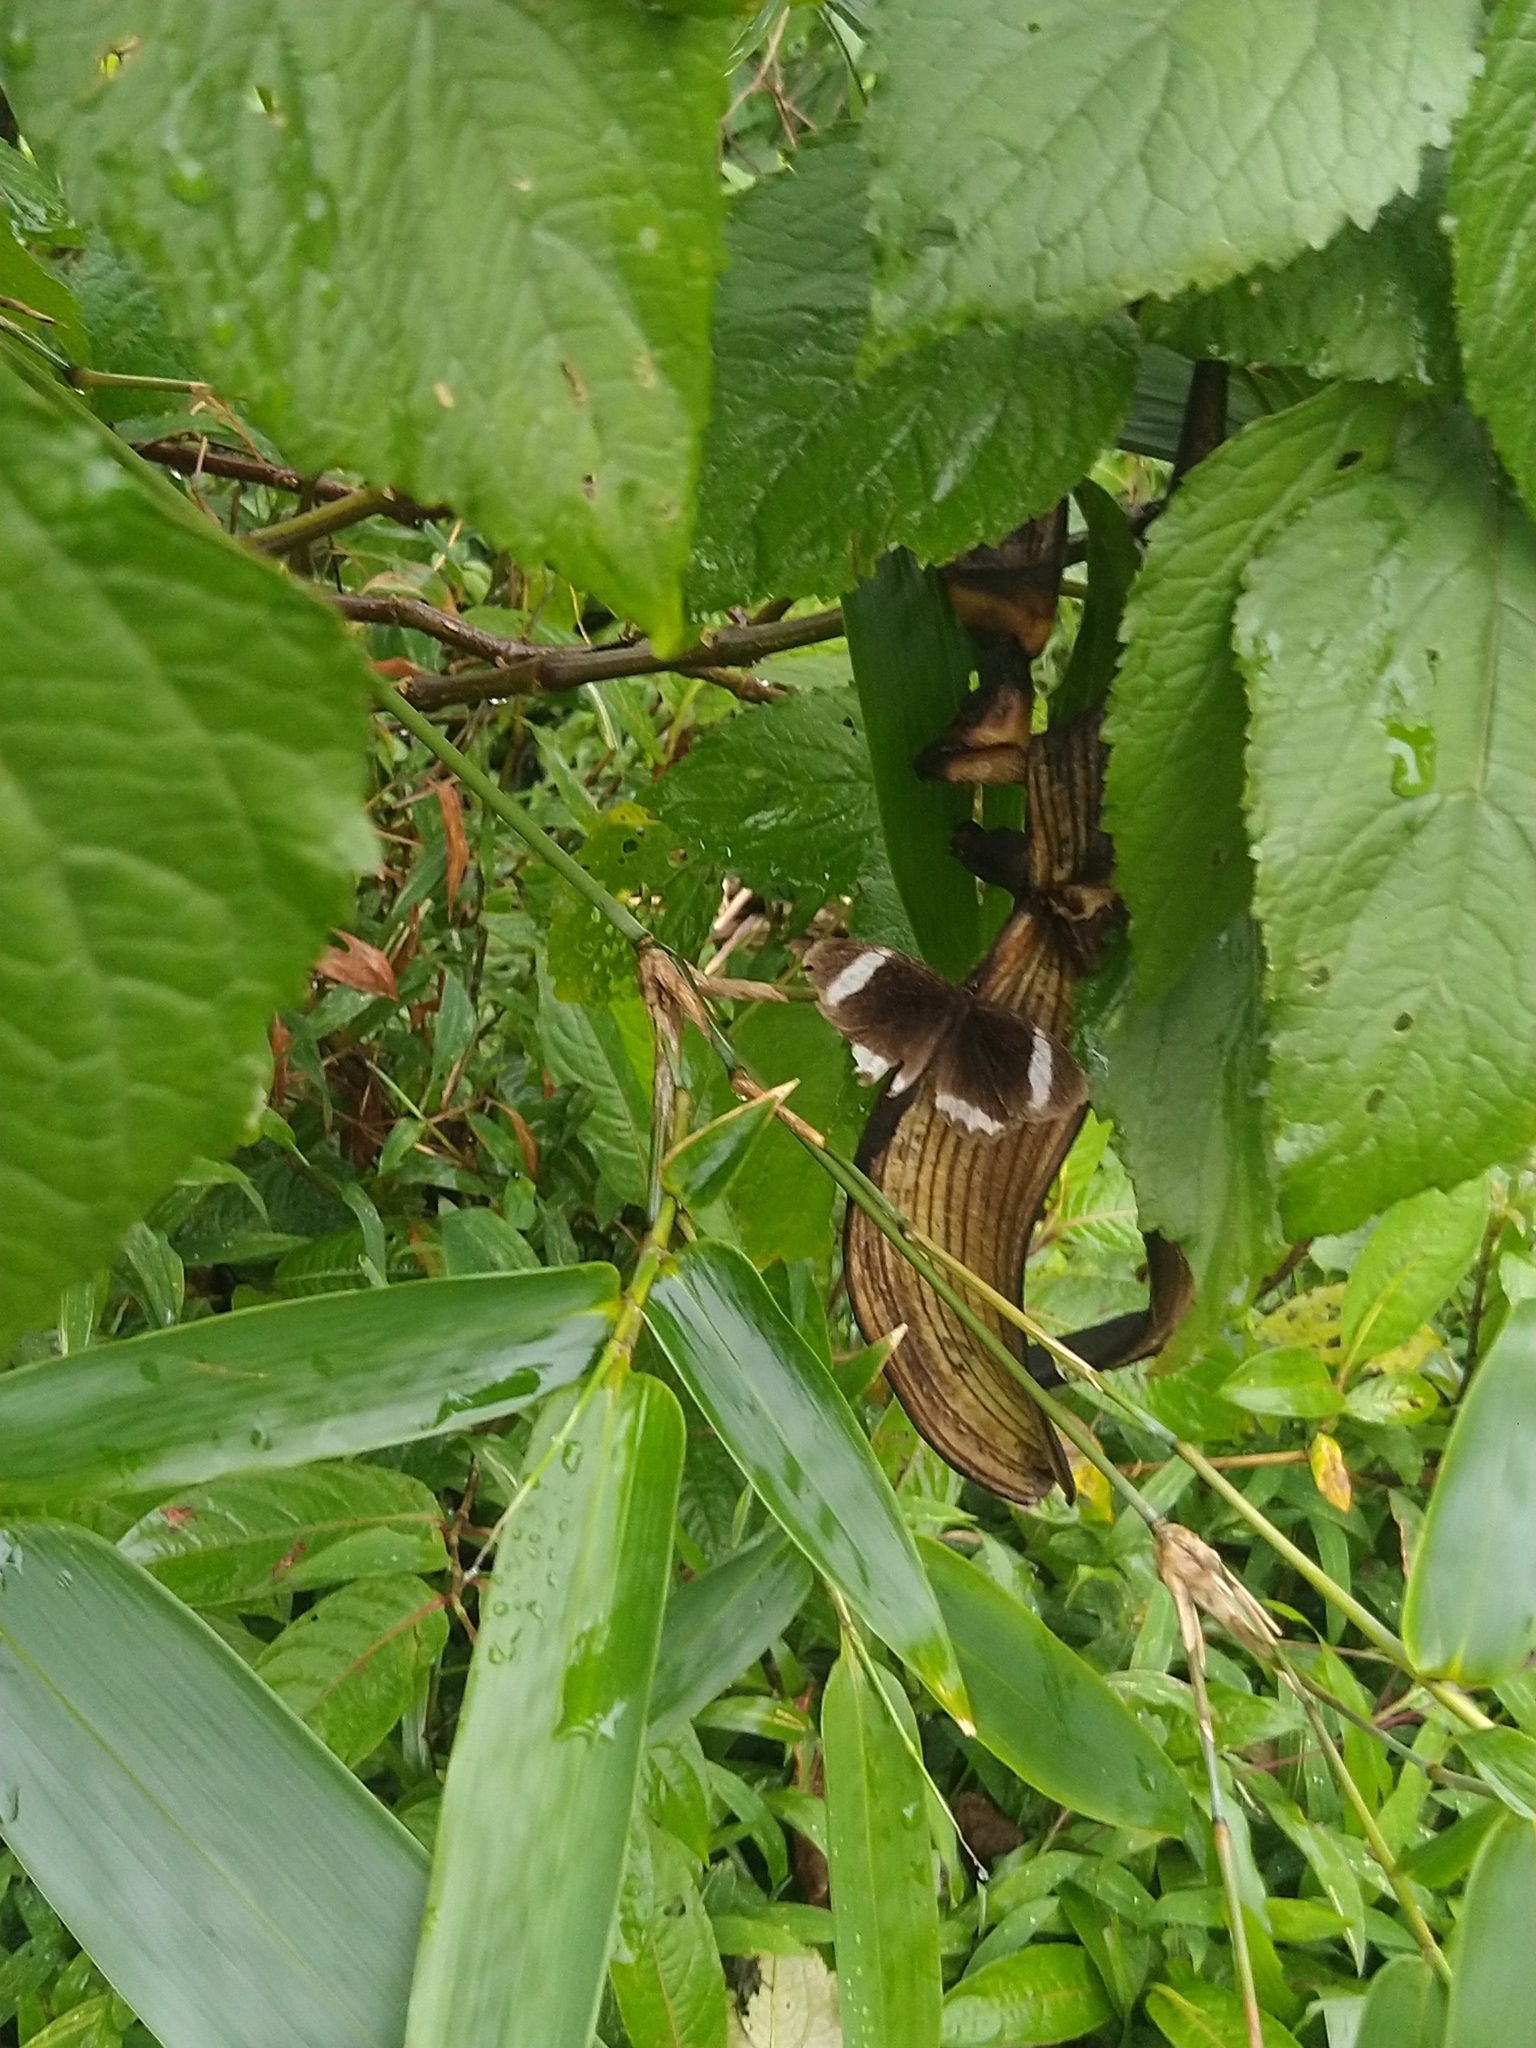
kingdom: Animalia
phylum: Arthropoda
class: Insecta
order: Lepidoptera
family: Nymphalidae
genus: Zipaetis
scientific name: Zipaetis saitis
